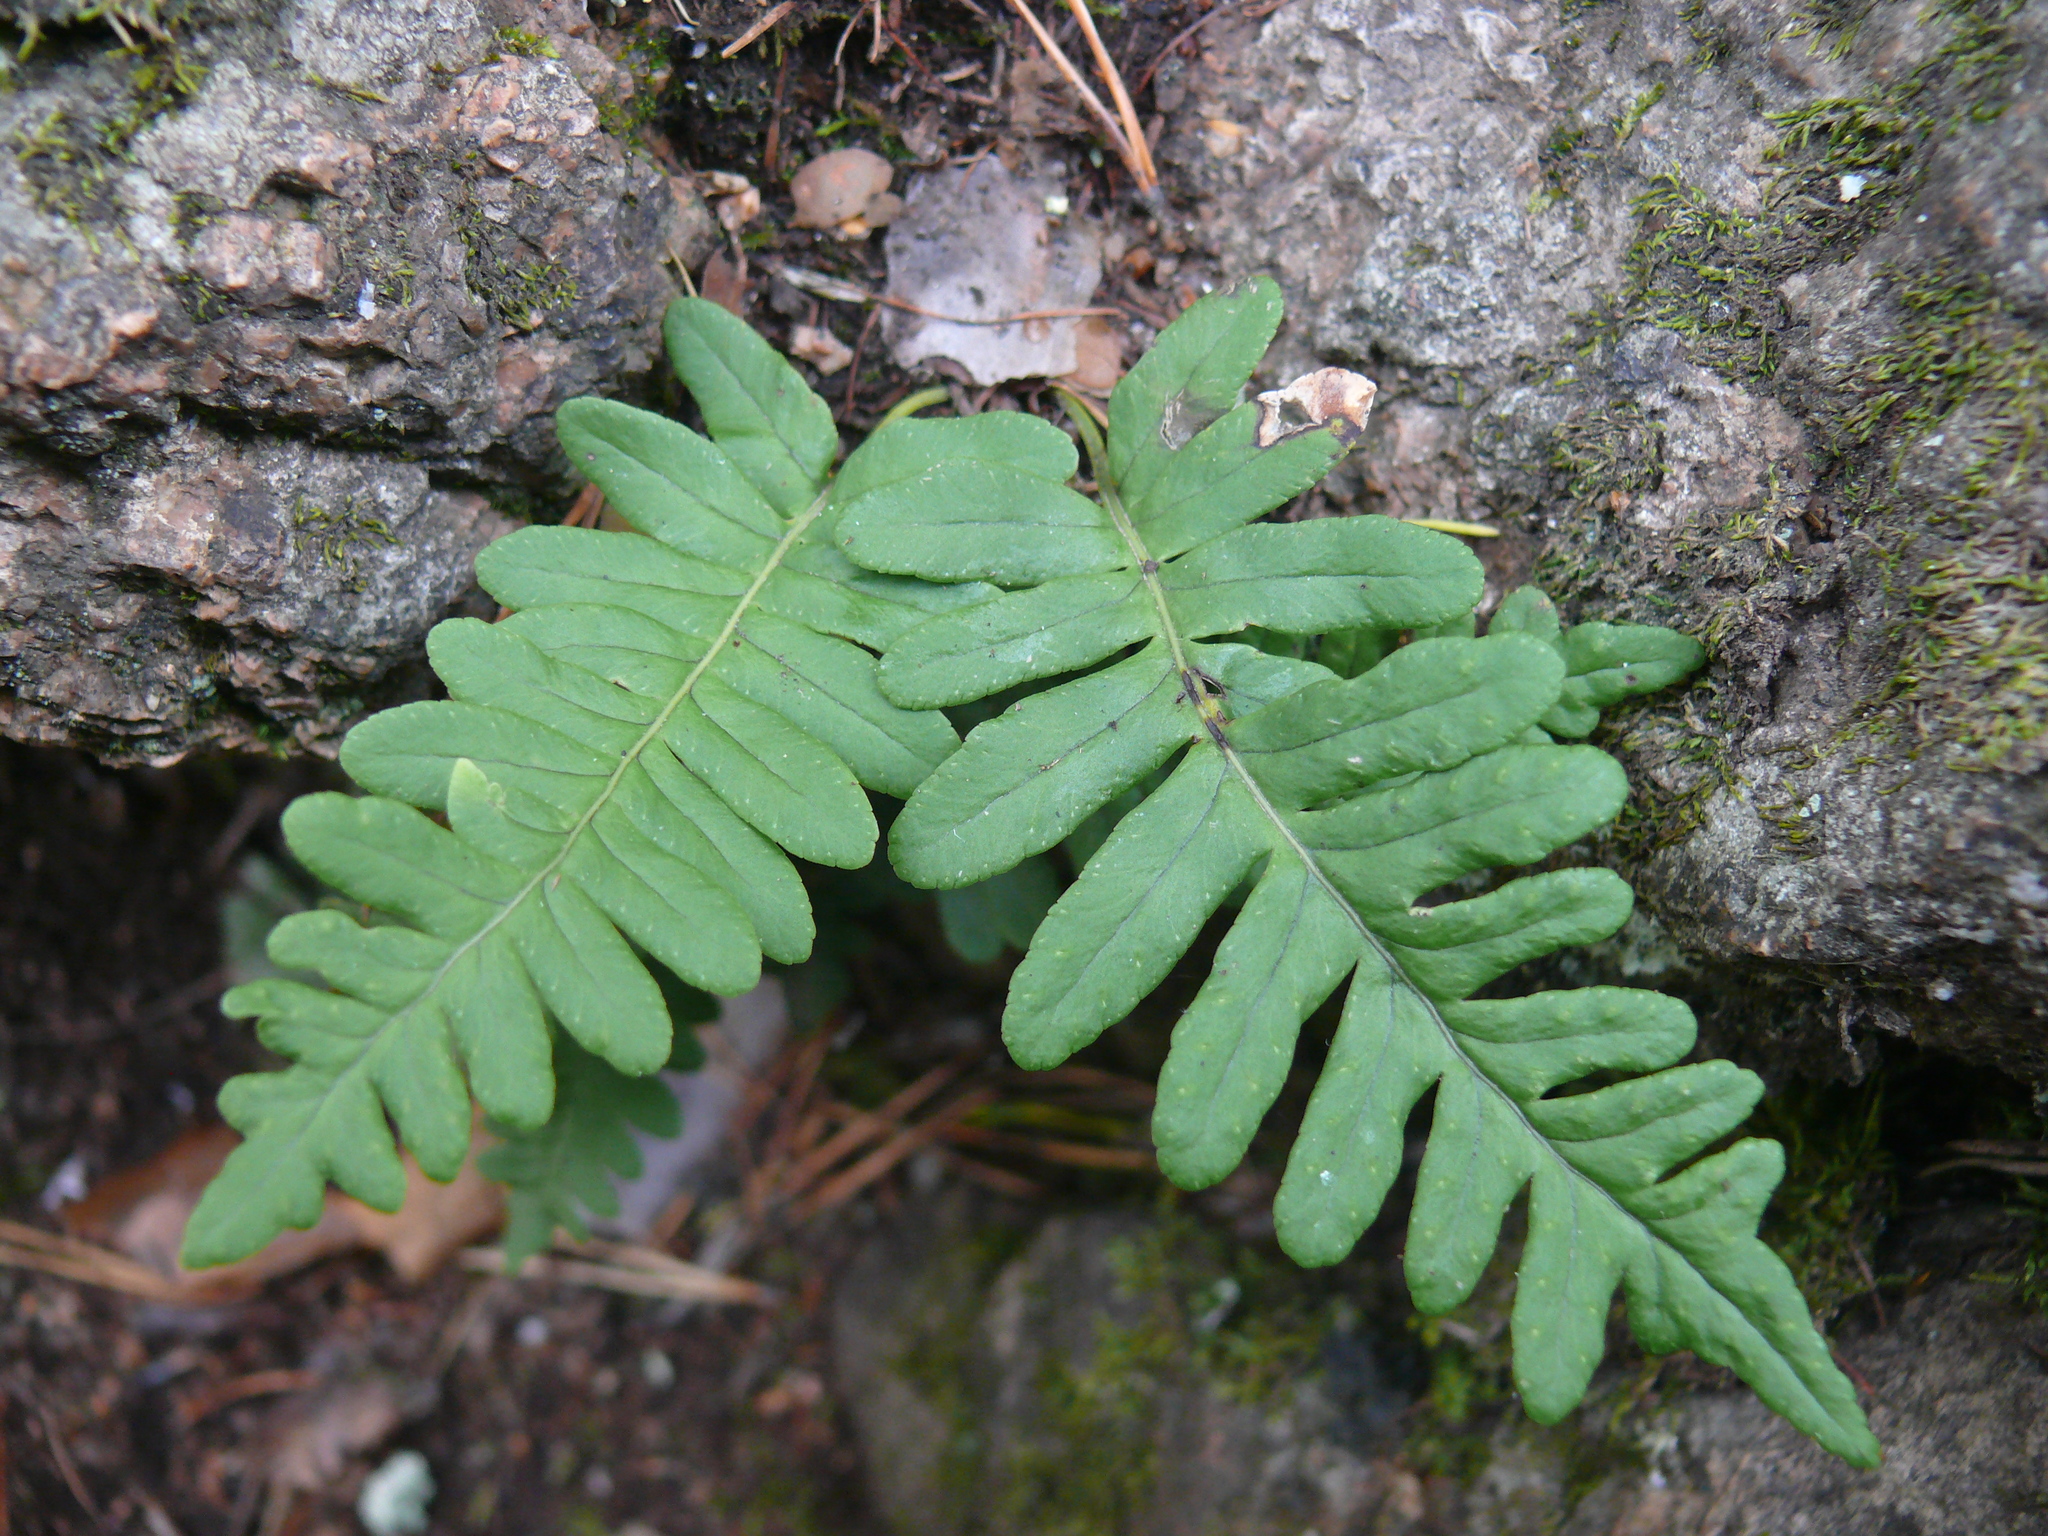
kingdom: Plantae
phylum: Tracheophyta
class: Polypodiopsida
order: Polypodiales
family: Polypodiaceae
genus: Polypodium
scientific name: Polypodium vulgare
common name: Common polypody
